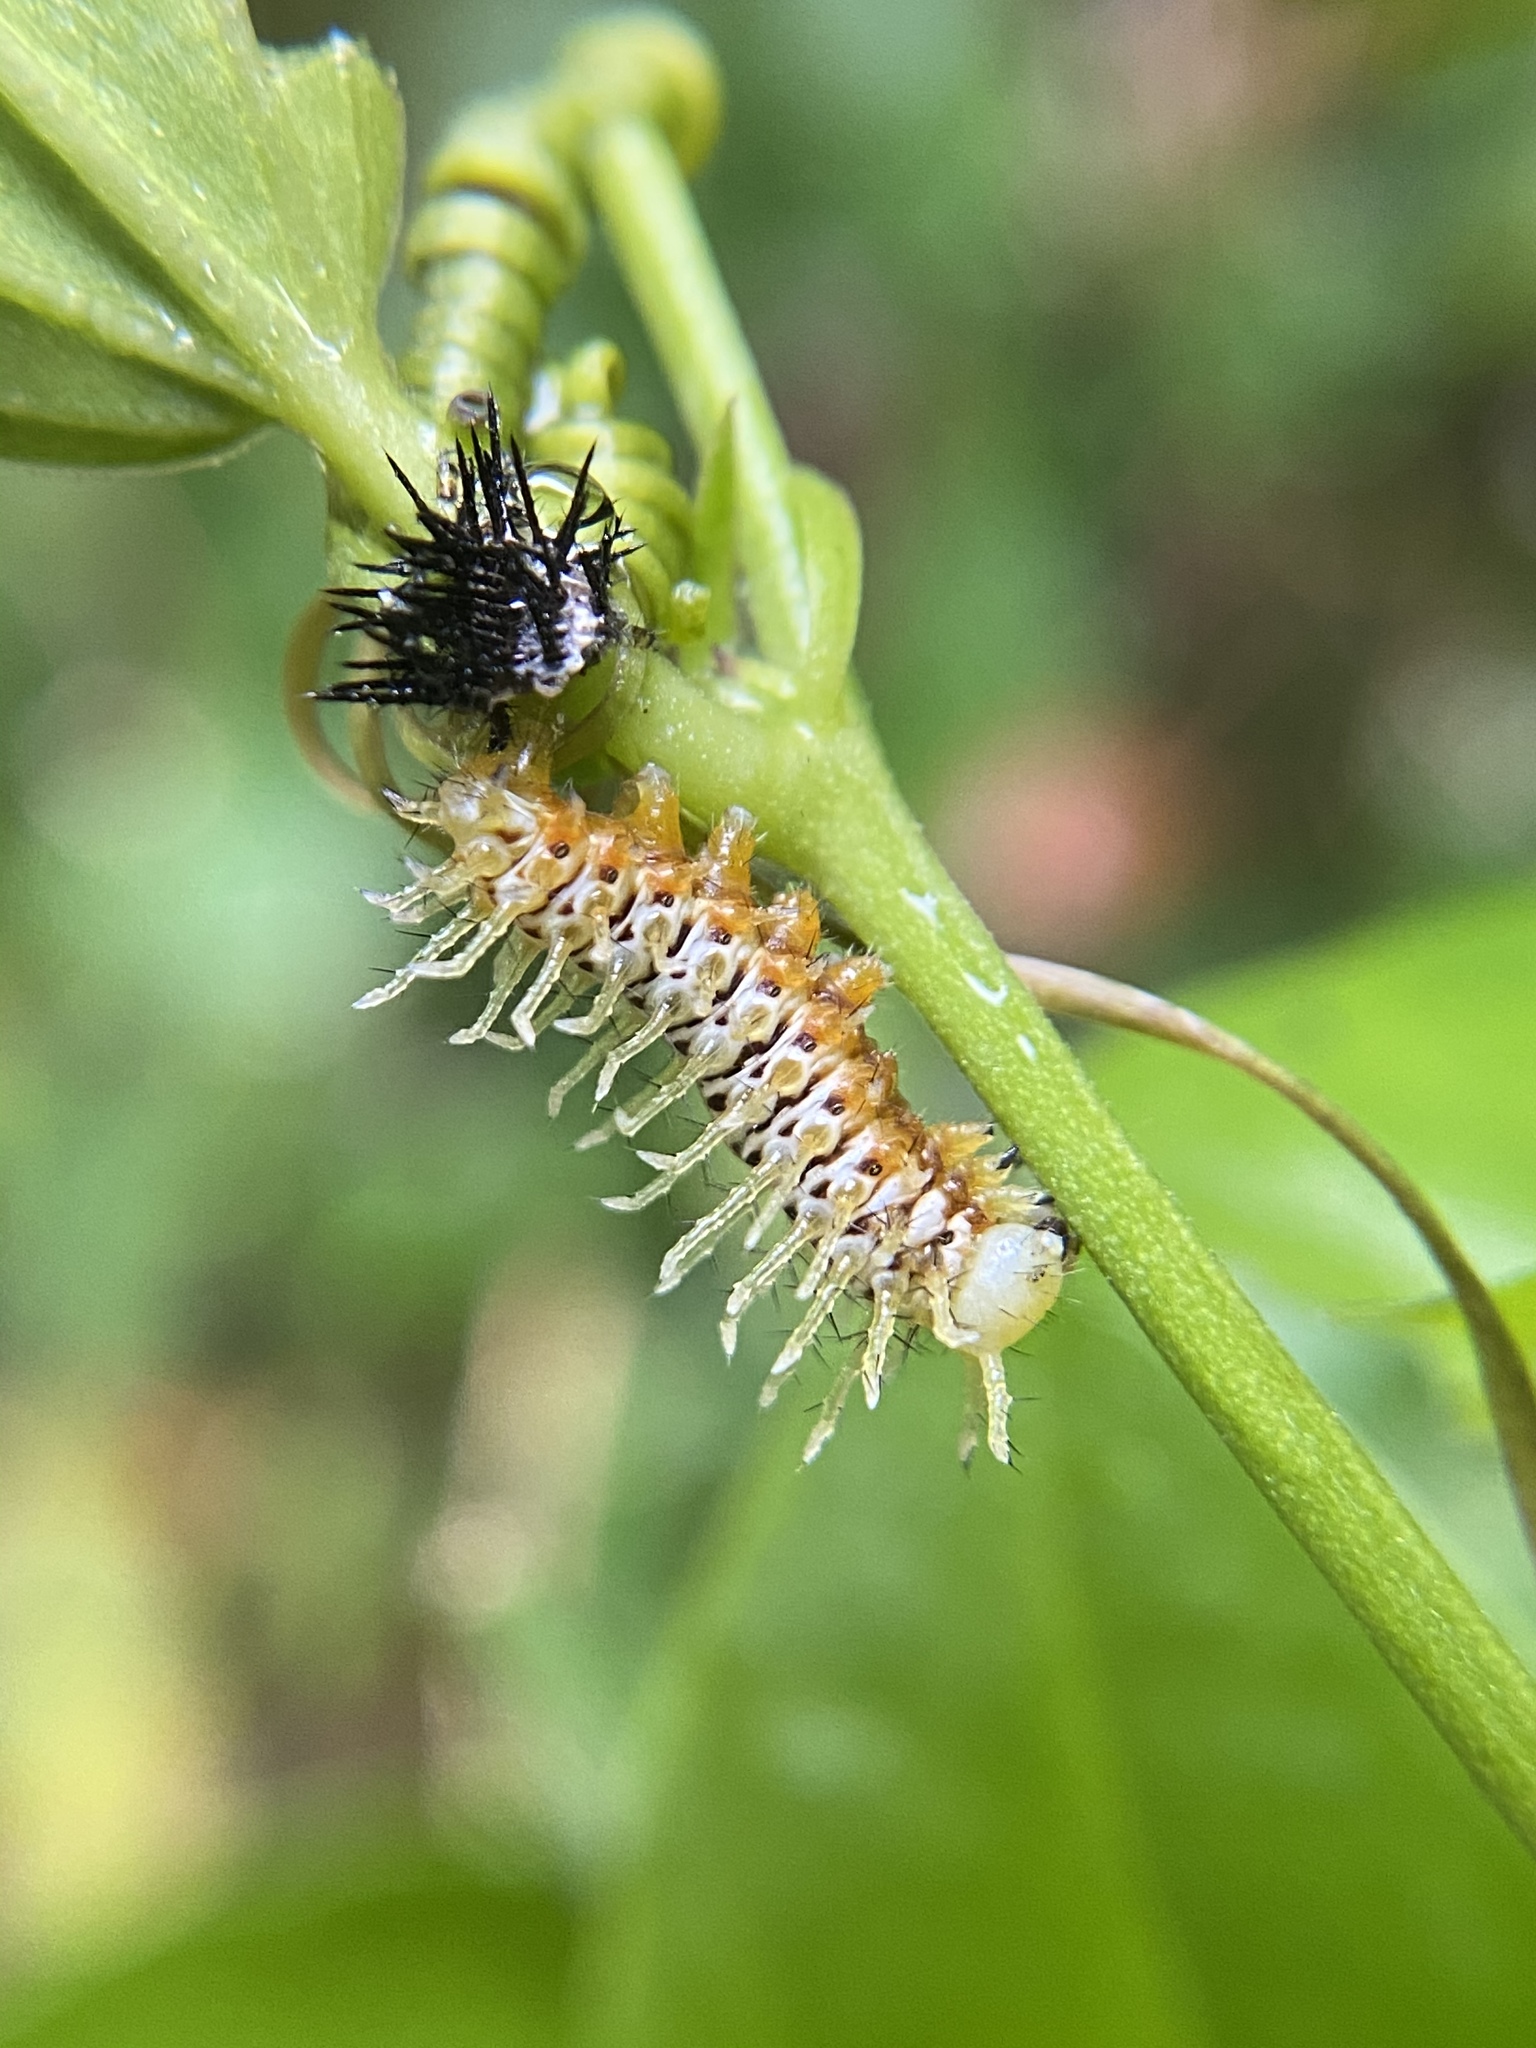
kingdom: Animalia
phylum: Arthropoda
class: Insecta
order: Lepidoptera
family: Nymphalidae
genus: Heliconius
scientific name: Heliconius charithonia
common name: Zebra long wing
